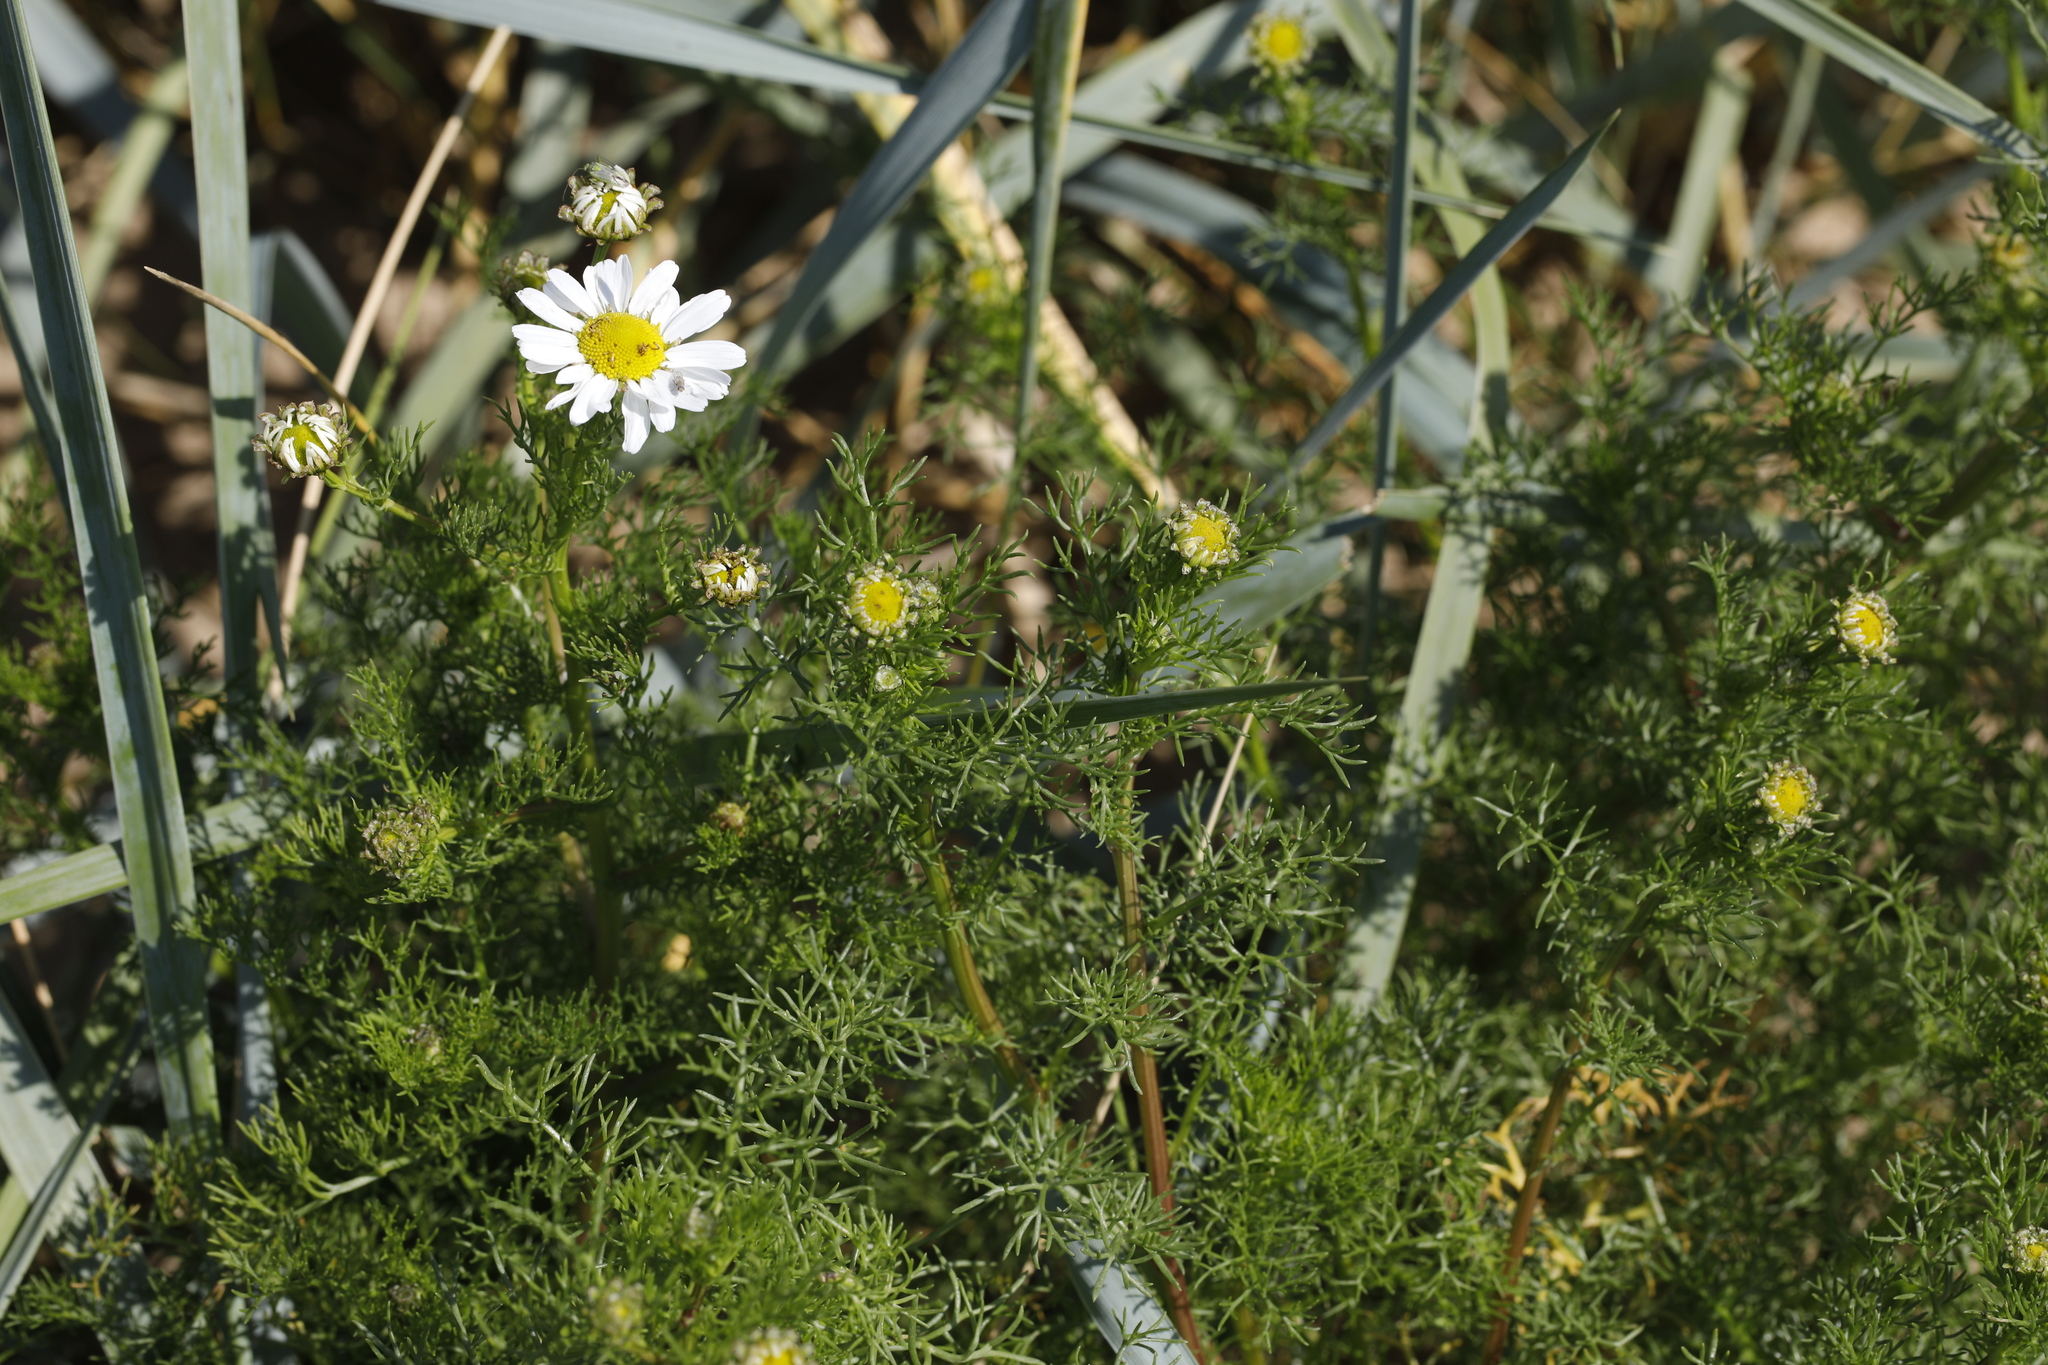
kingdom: Plantae
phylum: Tracheophyta
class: Magnoliopsida
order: Asterales
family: Asteraceae
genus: Tripleurospermum
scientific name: Tripleurospermum maritimum
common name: Sea mayweed
